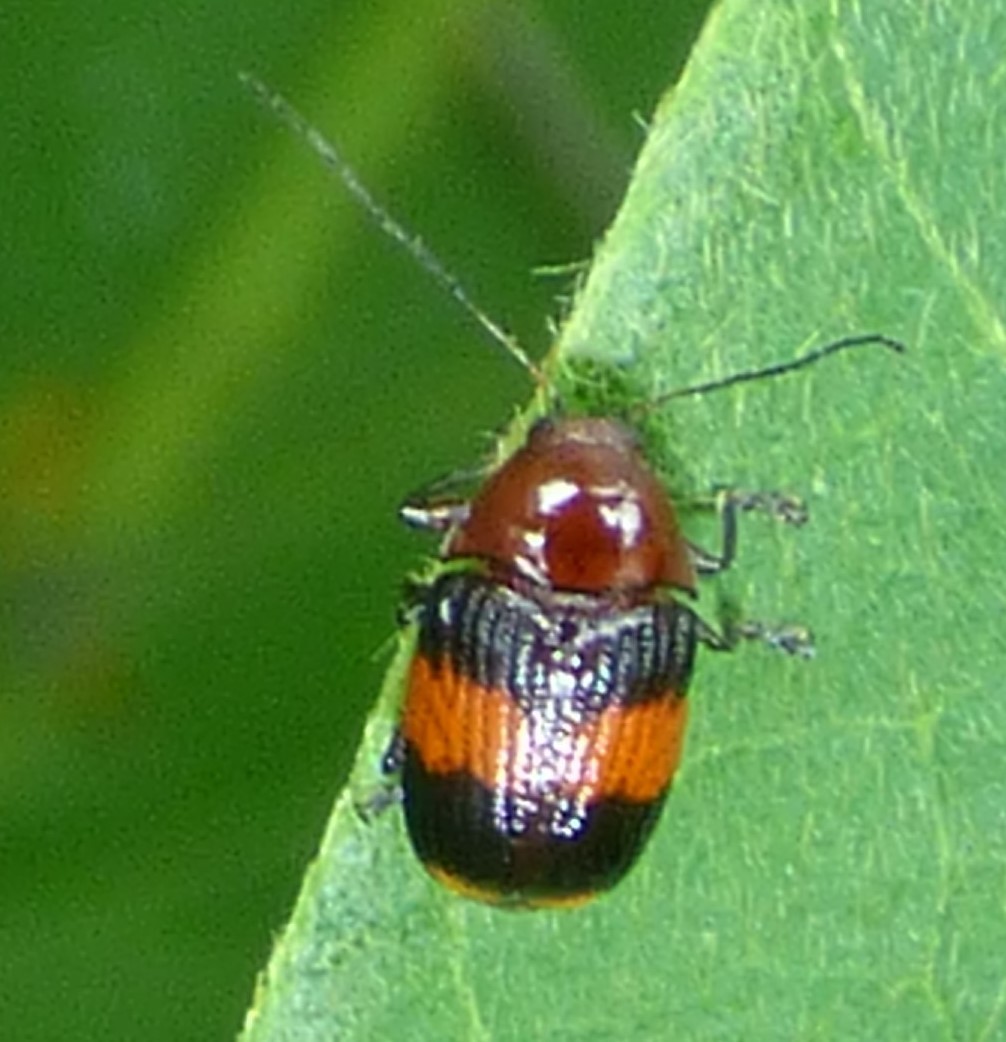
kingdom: Animalia
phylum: Arthropoda
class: Insecta
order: Coleoptera
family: Chrysomelidae
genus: Bassareus
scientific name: Bassareus detritus
